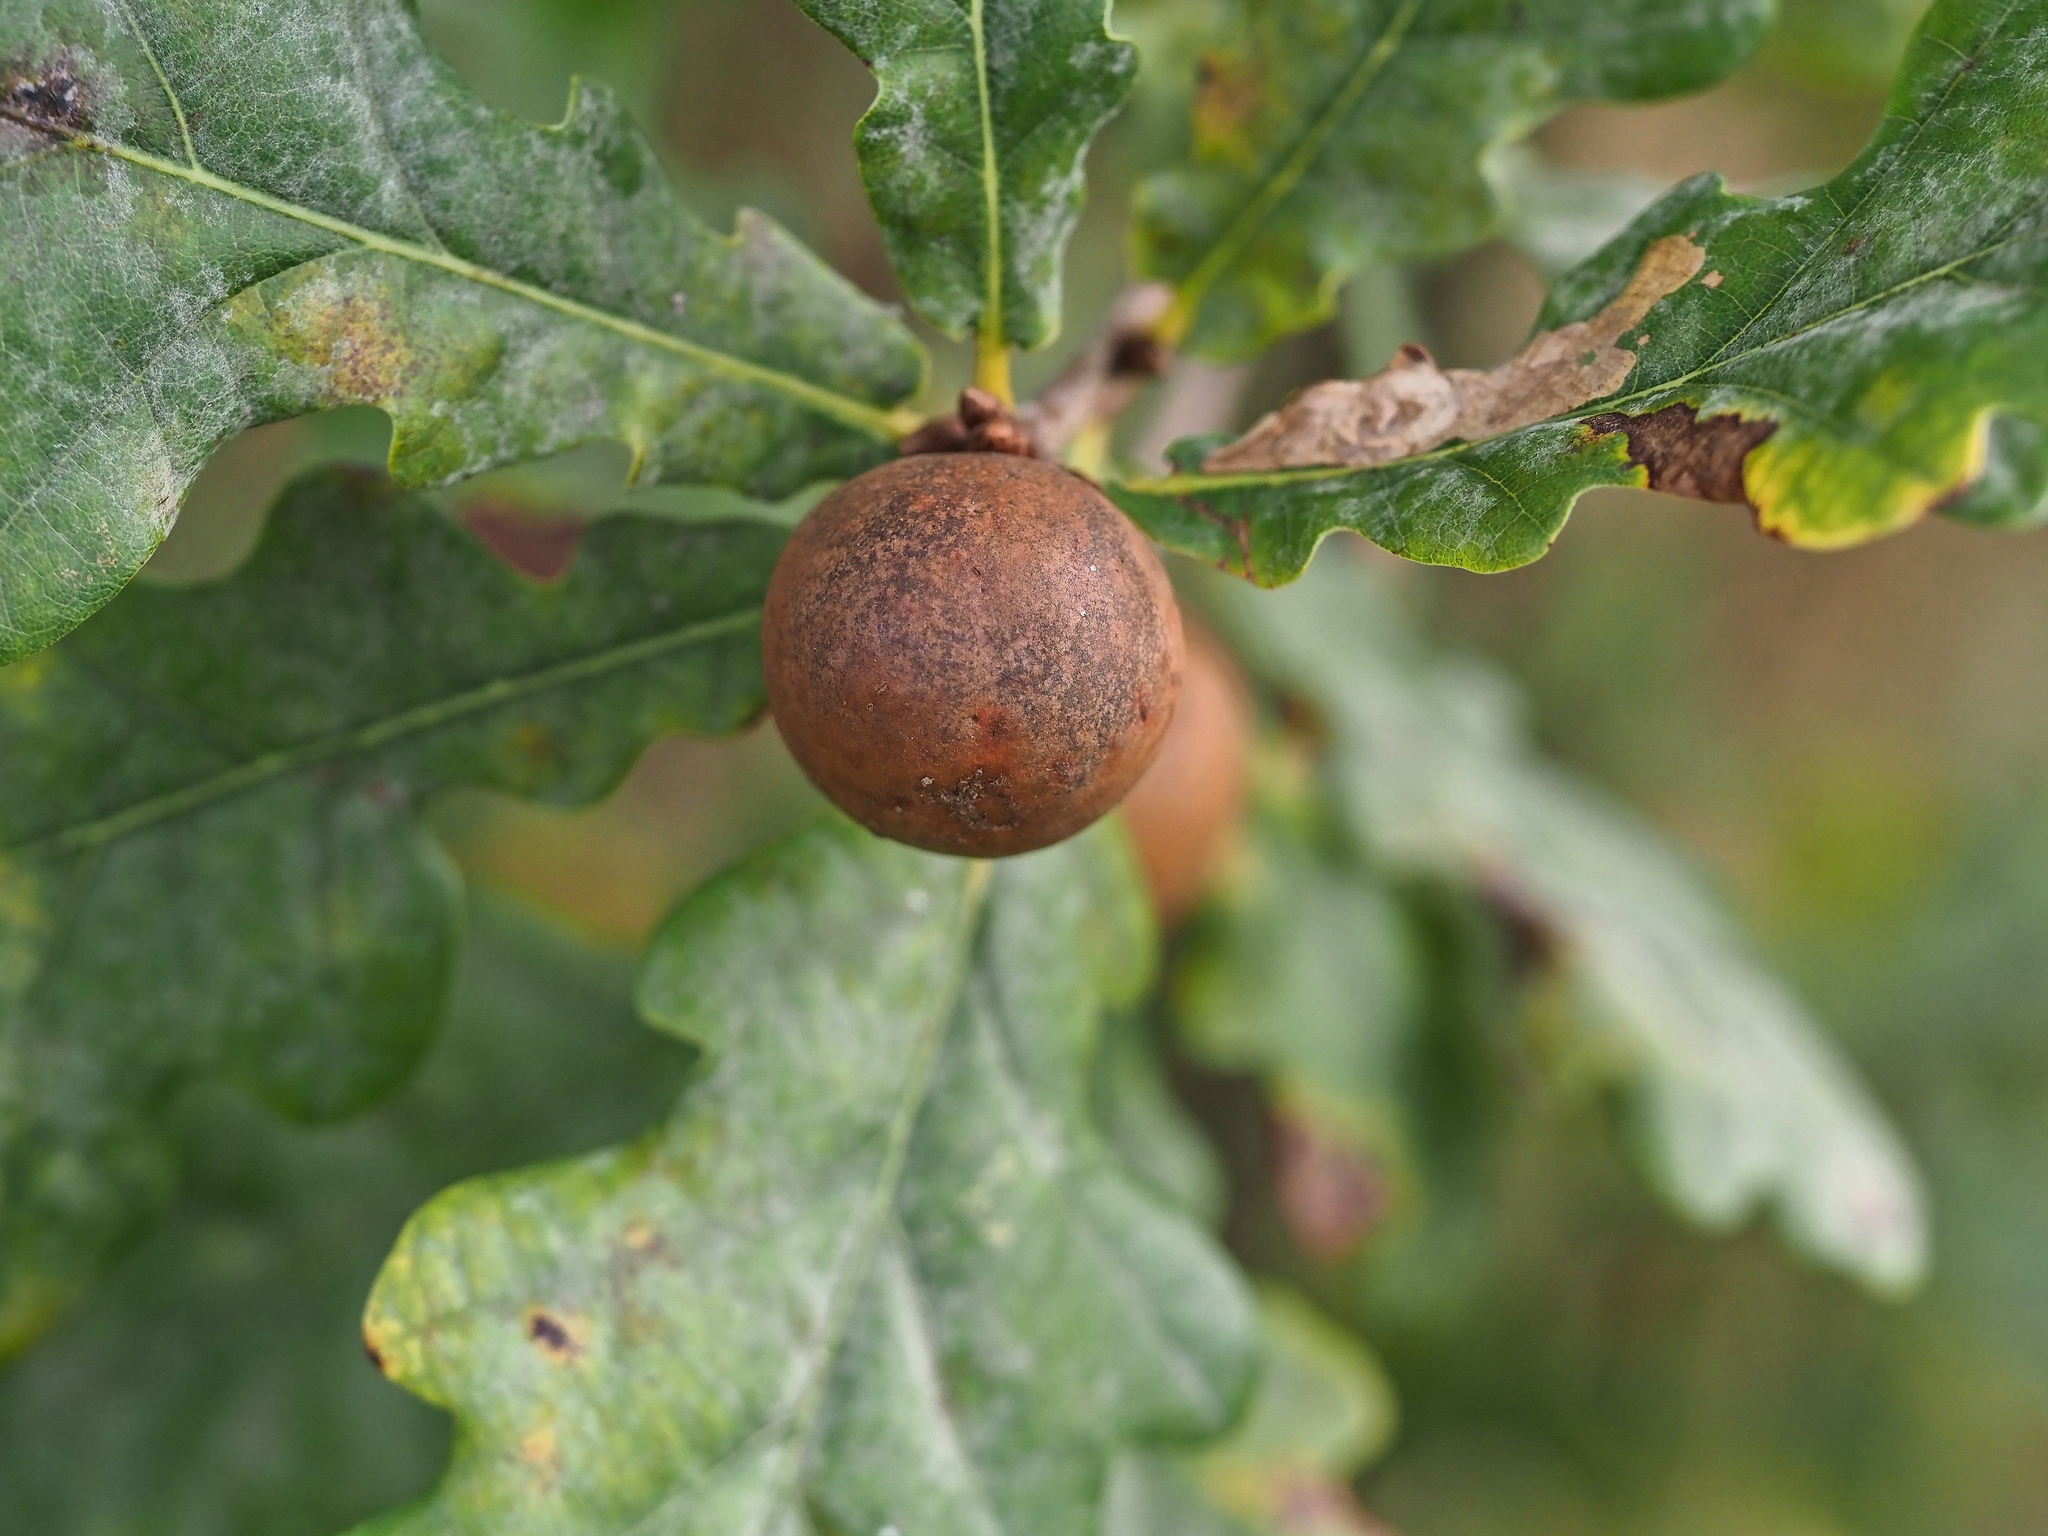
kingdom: Animalia
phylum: Arthropoda
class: Insecta
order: Hymenoptera
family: Cynipidae
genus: Andricus
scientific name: Andricus kollari
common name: Marble gall
